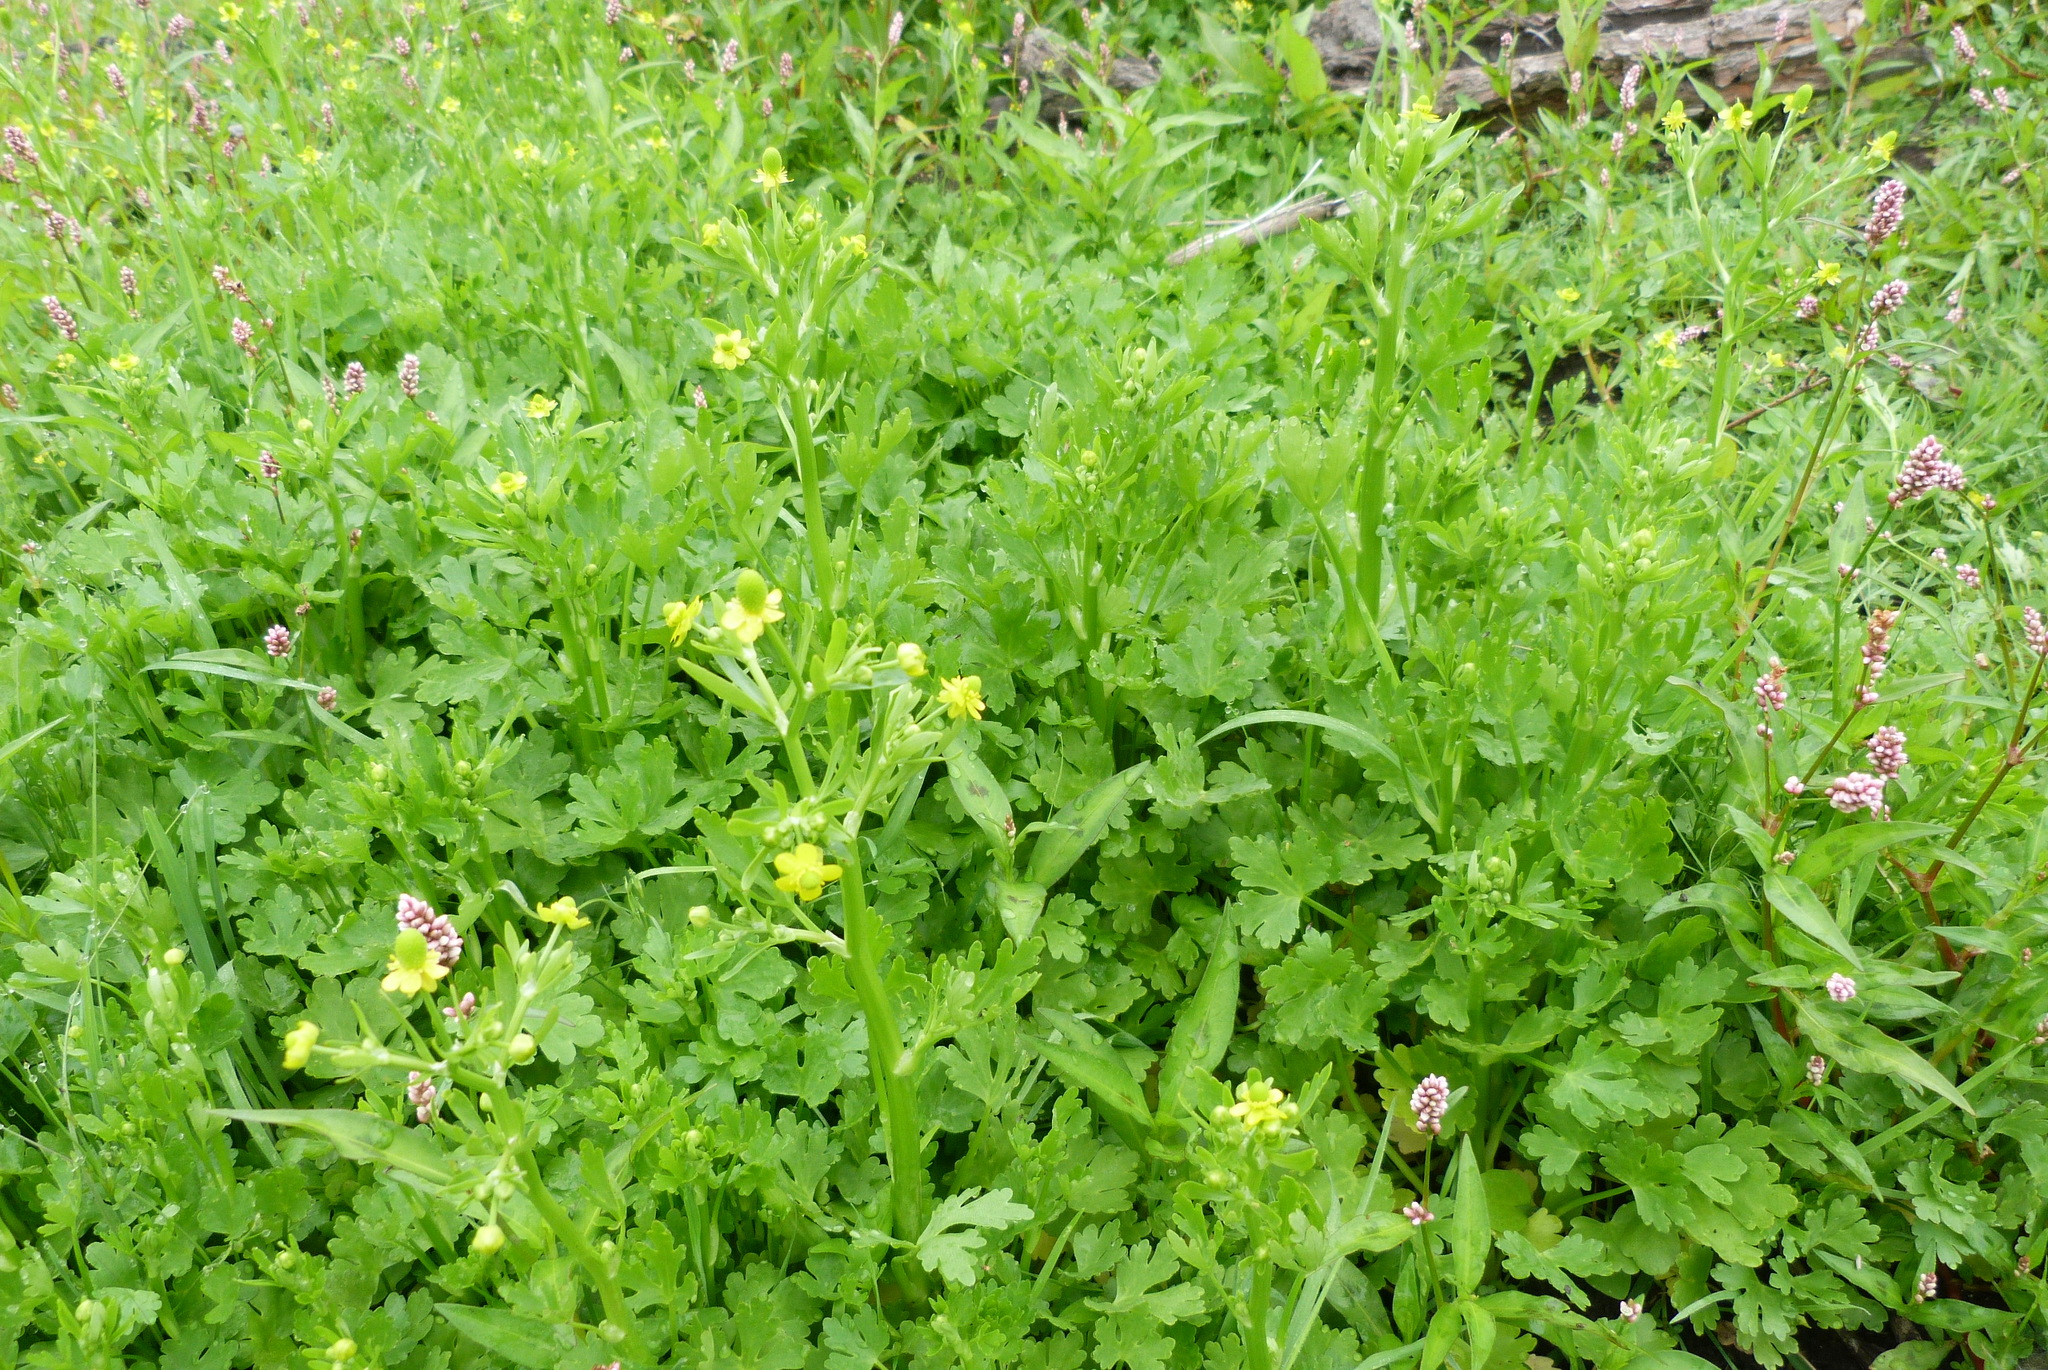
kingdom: Plantae
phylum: Tracheophyta
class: Magnoliopsida
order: Ranunculales
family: Ranunculaceae
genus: Ranunculus
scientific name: Ranunculus sceleratus
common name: Celery-leaved buttercup
